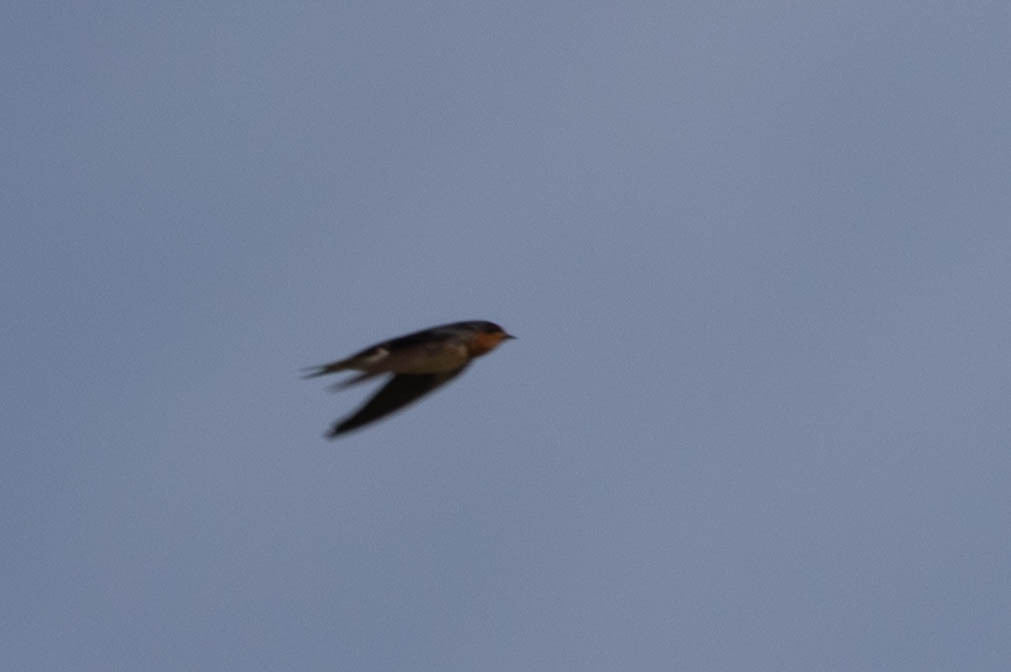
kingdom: Animalia
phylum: Chordata
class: Aves
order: Passeriformes
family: Hirundinidae
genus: Hirundo
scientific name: Hirundo rustica
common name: Barn swallow
